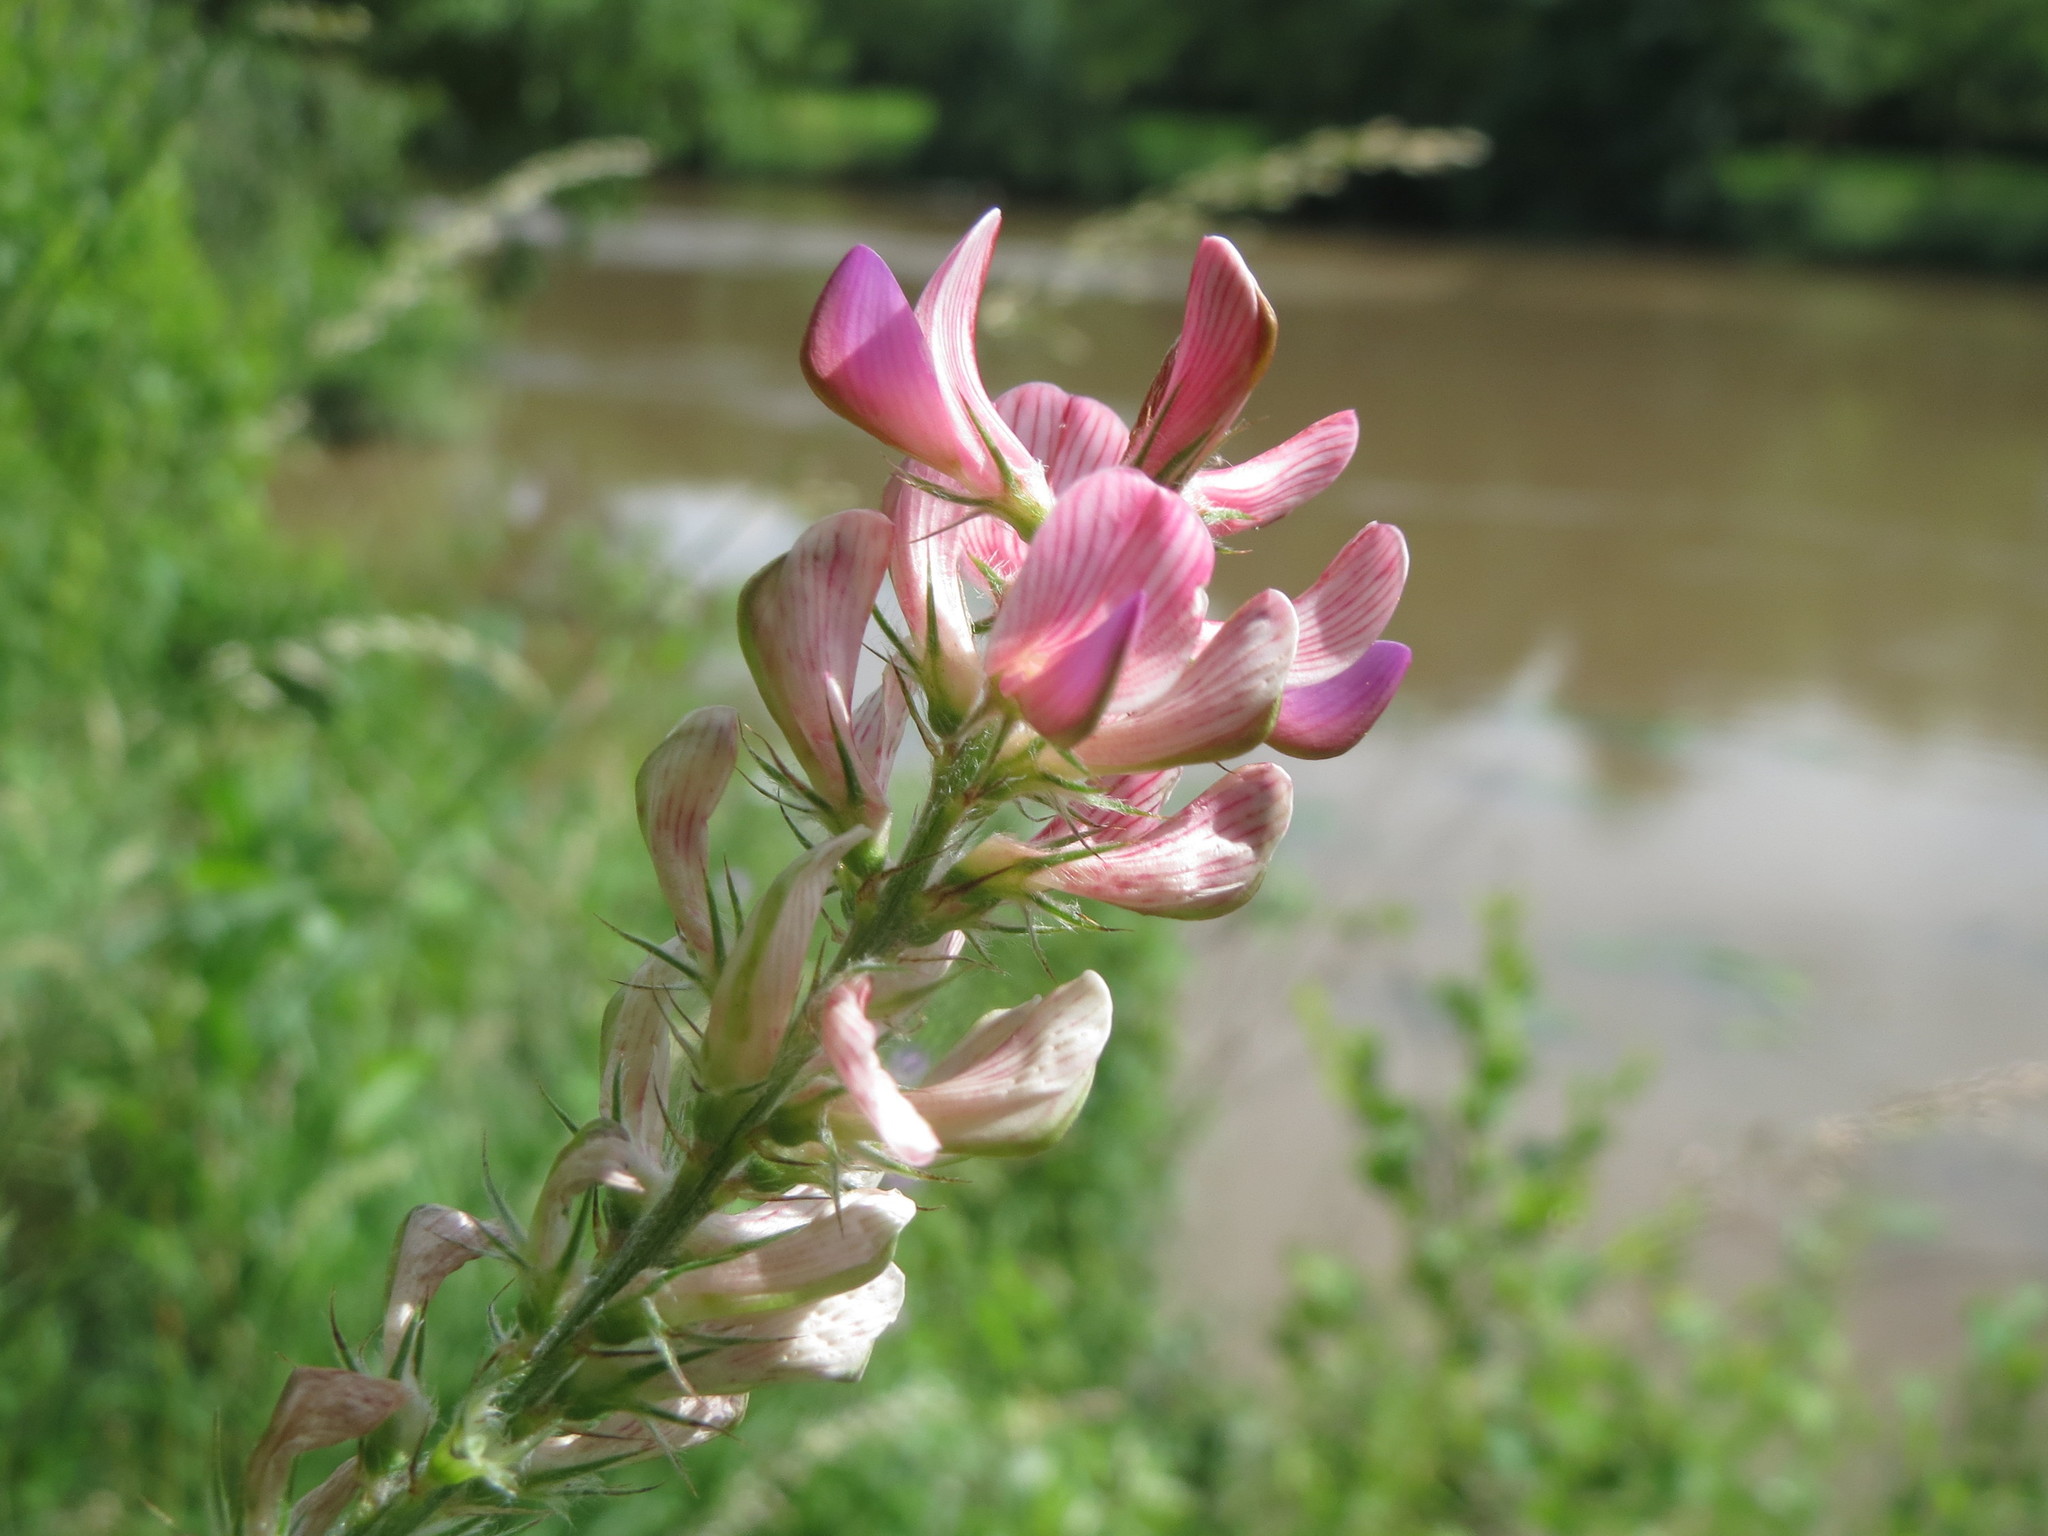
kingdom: Plantae
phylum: Tracheophyta
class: Magnoliopsida
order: Fabales
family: Fabaceae
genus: Onobrychis
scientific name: Onobrychis viciifolia
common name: Sainfoin
